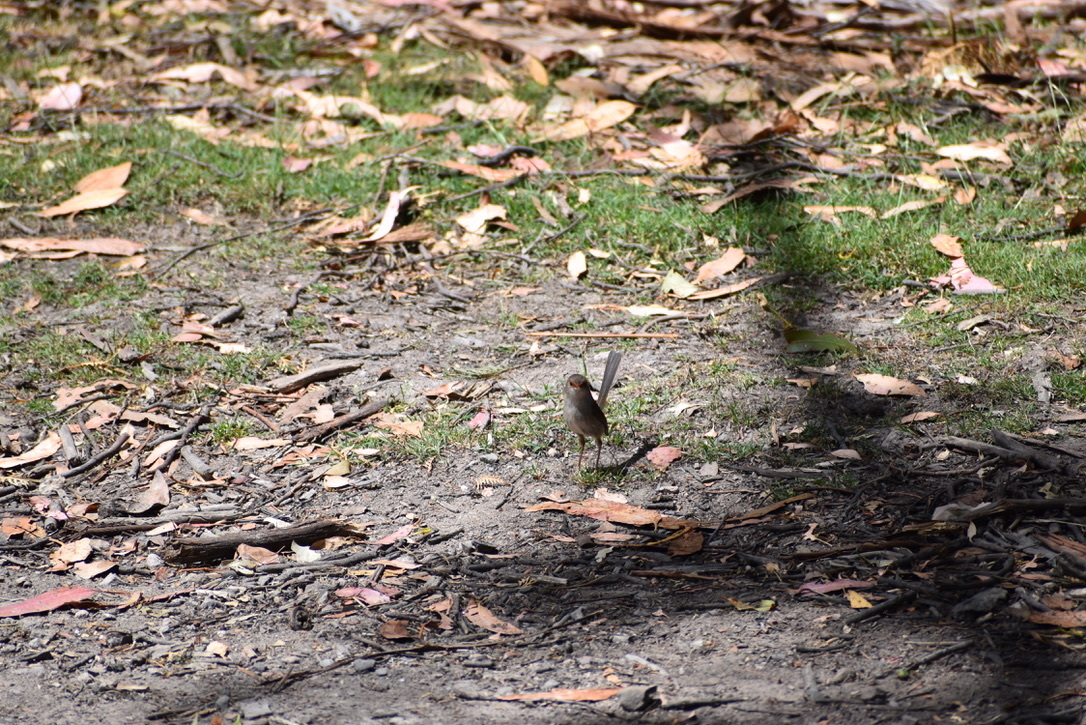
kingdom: Animalia
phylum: Chordata
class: Aves
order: Passeriformes
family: Maluridae
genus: Malurus
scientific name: Malurus cyaneus
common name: Superb fairywren
